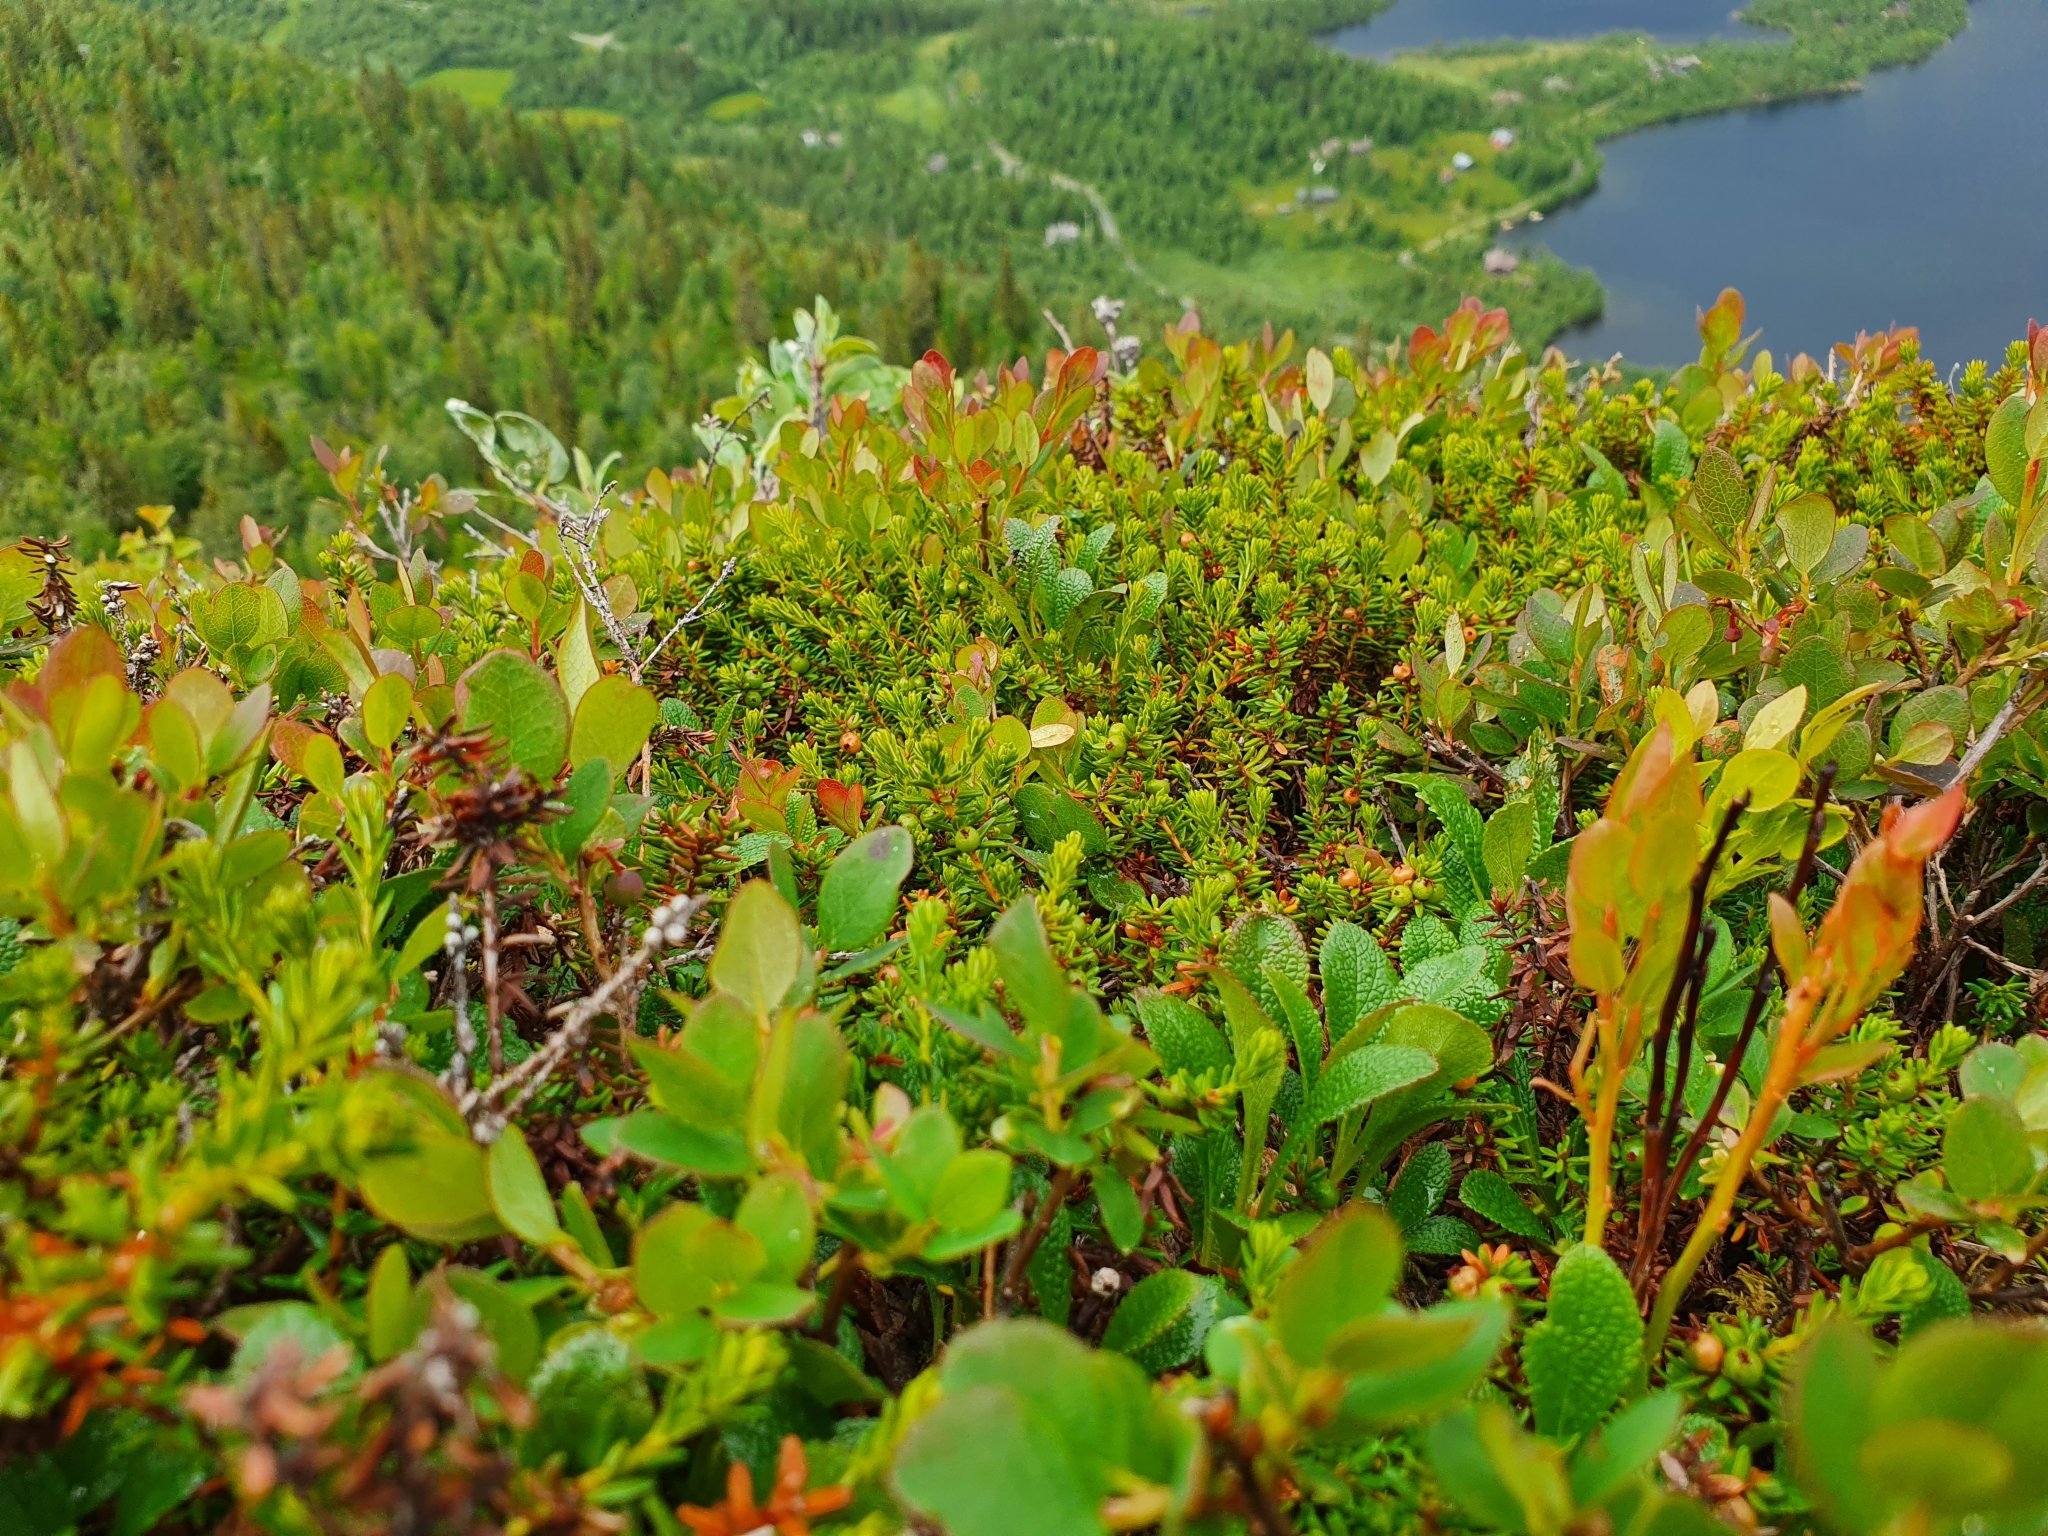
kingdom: Plantae
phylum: Tracheophyta
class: Magnoliopsida
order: Ericales
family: Ericaceae
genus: Arctostaphylos
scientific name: Arctostaphylos alpinus
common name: Alpine bearberry
